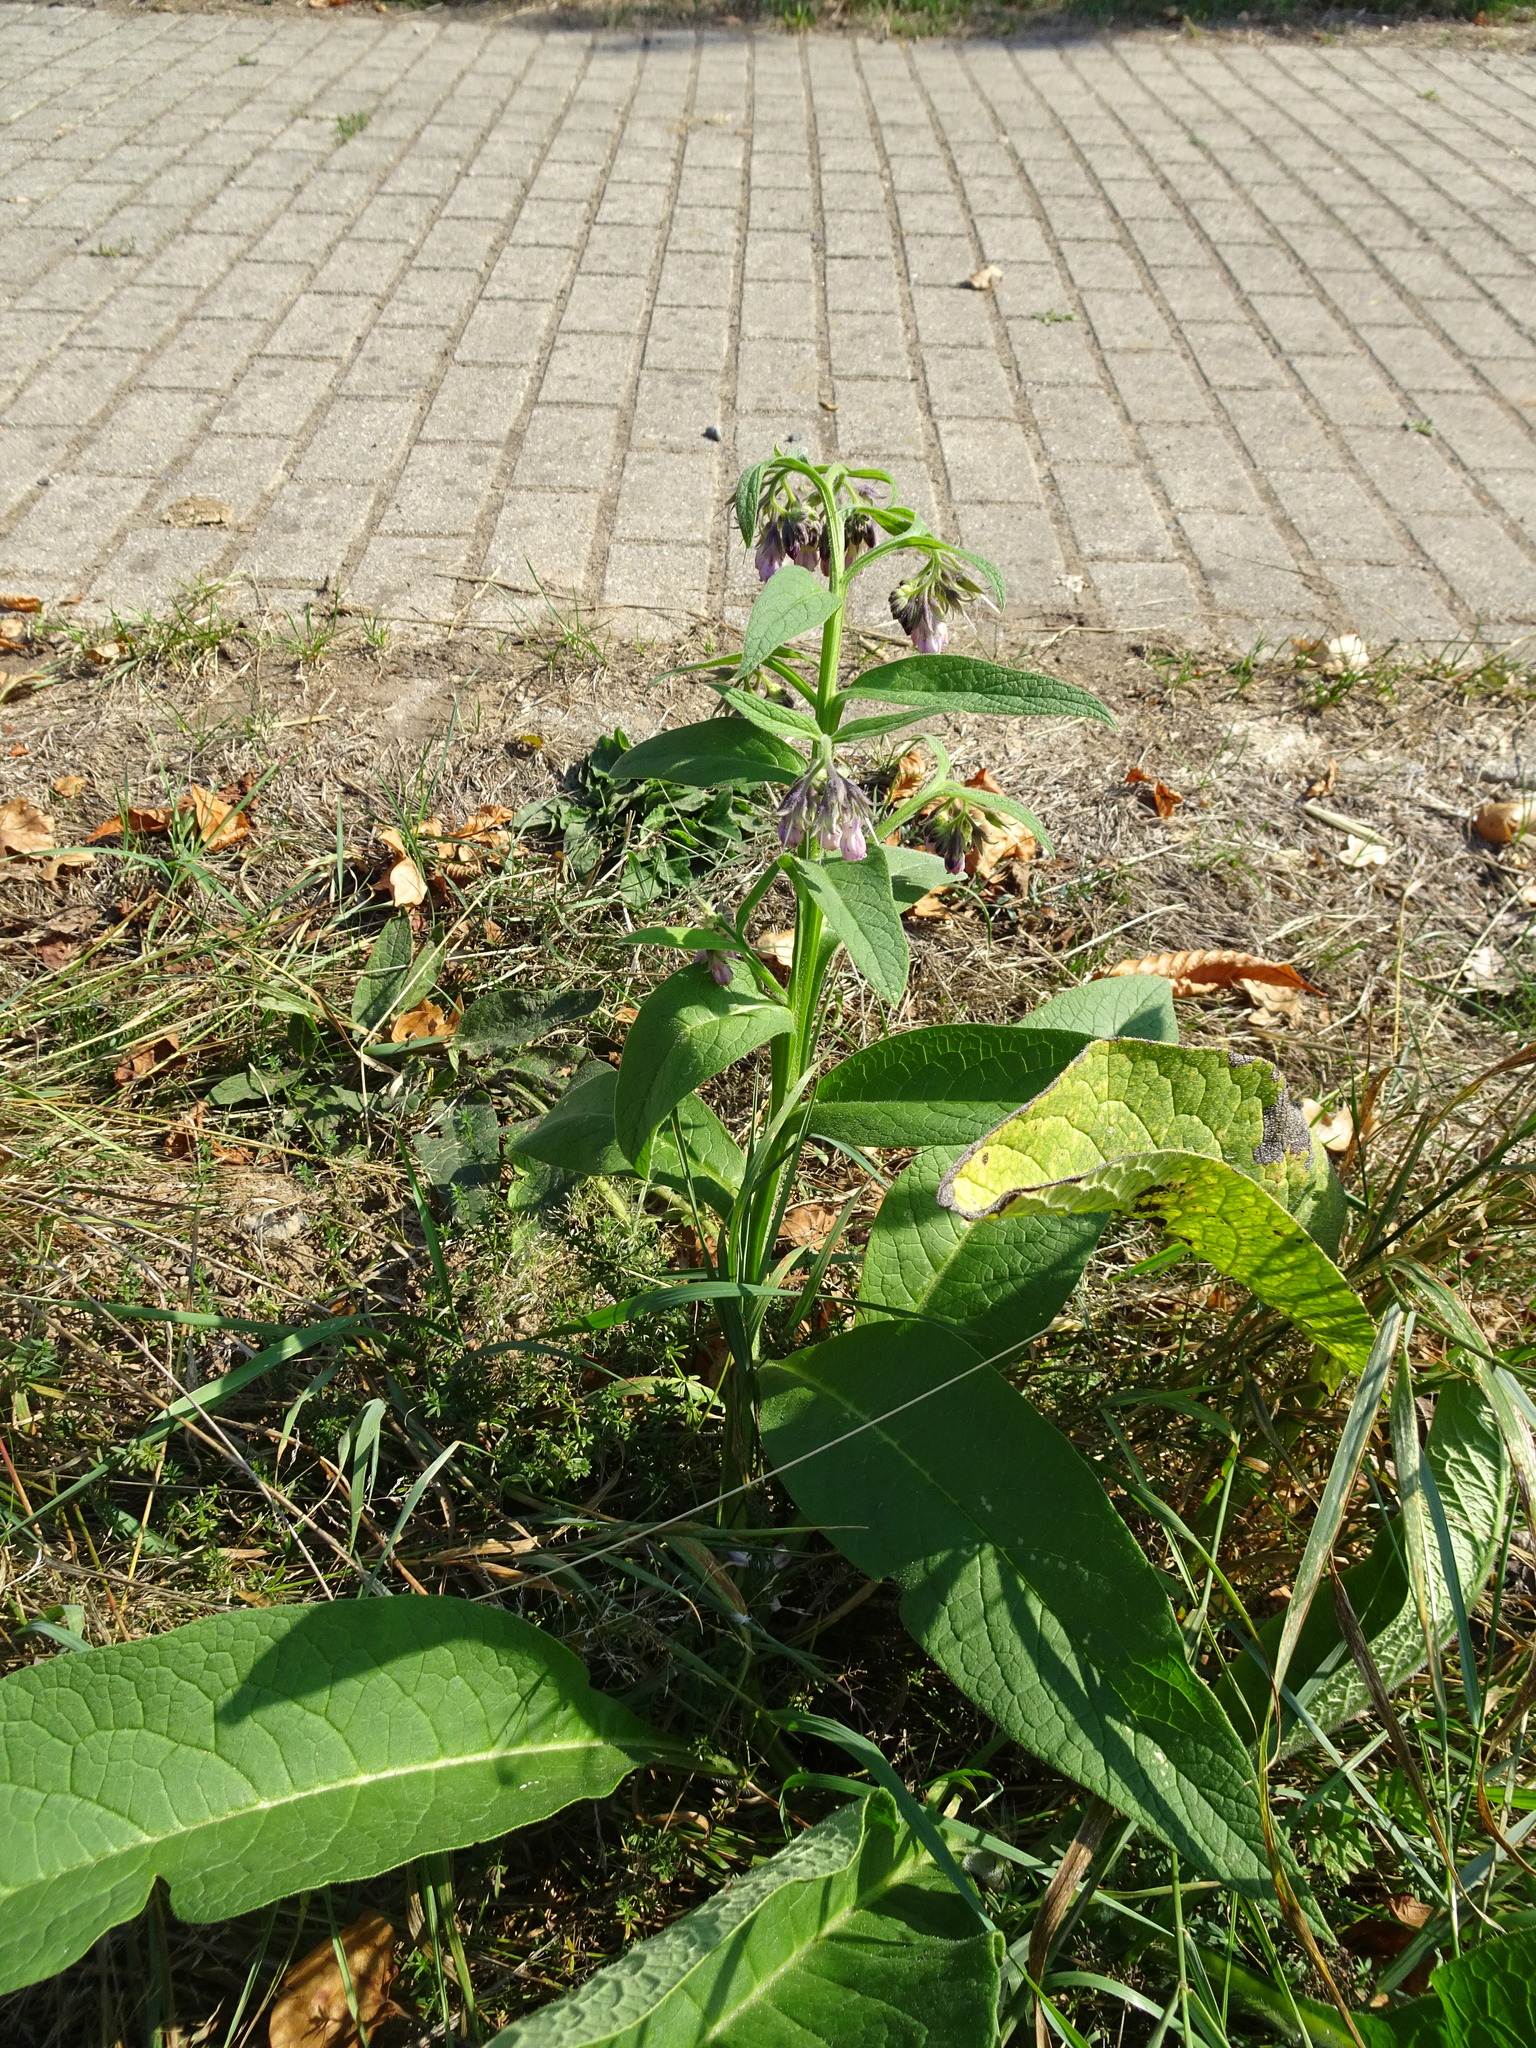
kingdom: Plantae
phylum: Tracheophyta
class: Magnoliopsida
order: Boraginales
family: Boraginaceae
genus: Symphytum
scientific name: Symphytum officinale
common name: Common comfrey
